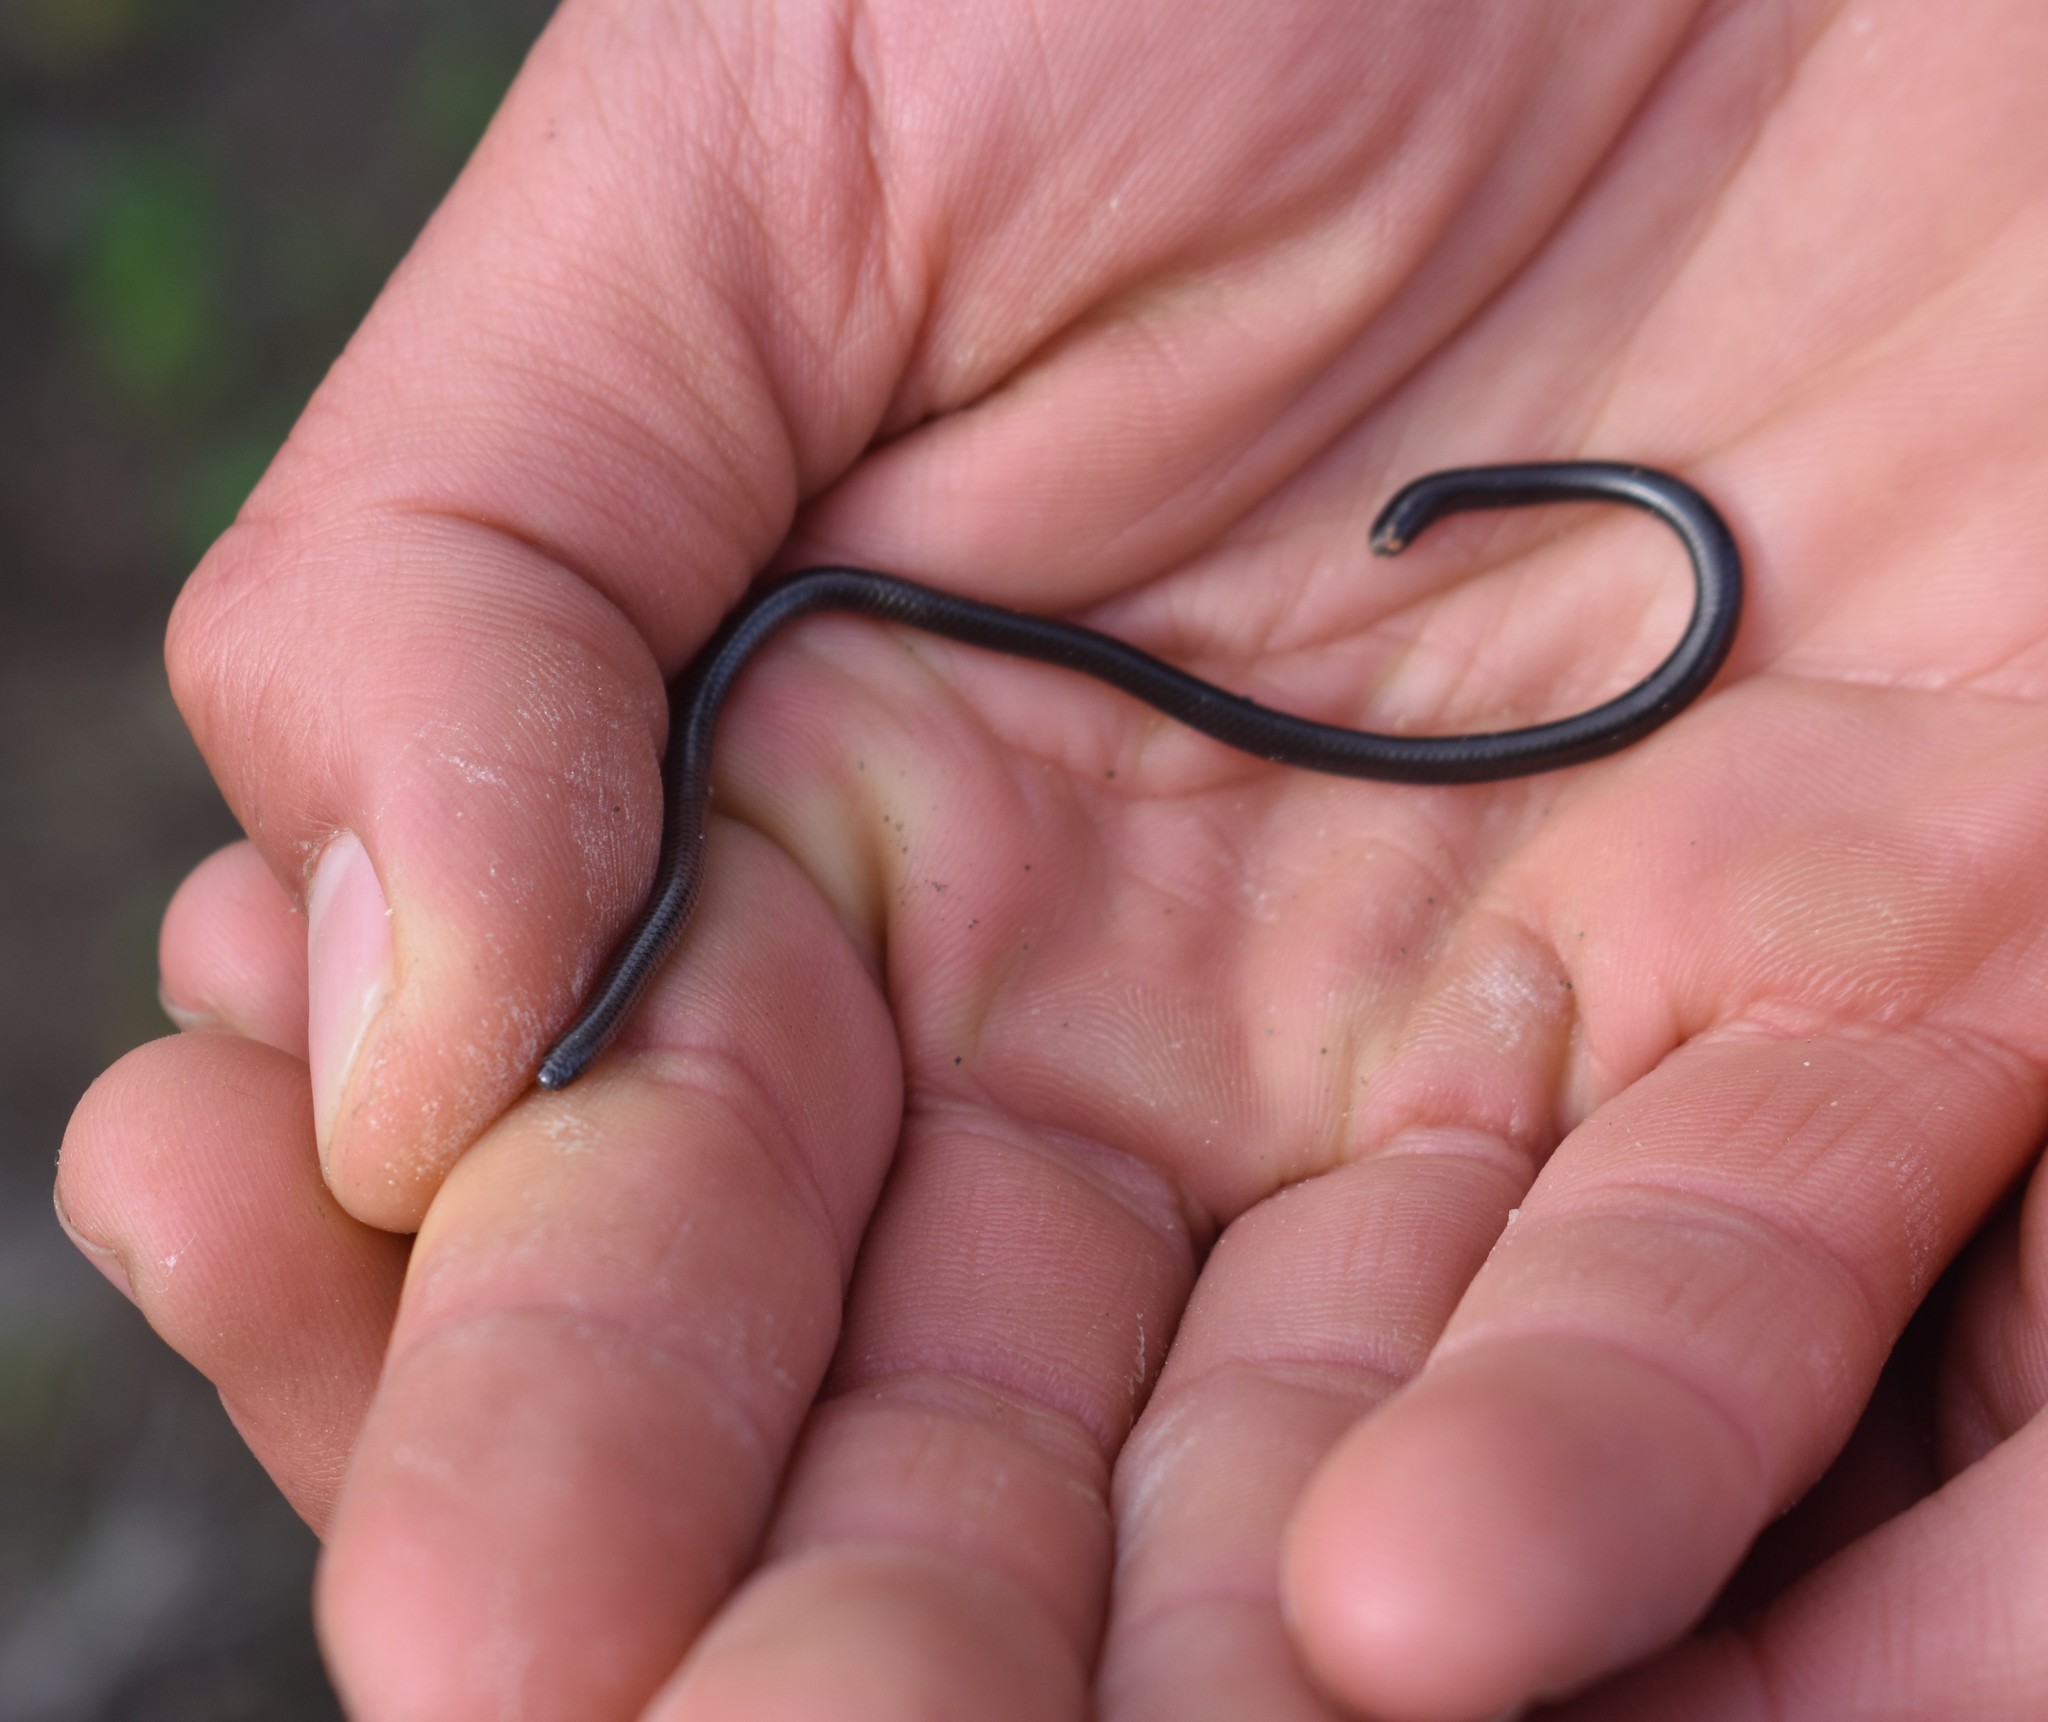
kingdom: Animalia
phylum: Chordata
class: Squamata
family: Leptotyphlopidae
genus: Leptotyphlops
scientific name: Leptotyphlops nigricans
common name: Black thread snake
